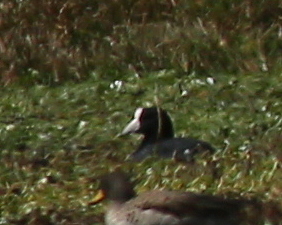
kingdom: Animalia
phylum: Chordata
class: Aves
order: Gruiformes
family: Rallidae
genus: Fulica
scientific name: Fulica ardesiaca
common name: Andean coot
